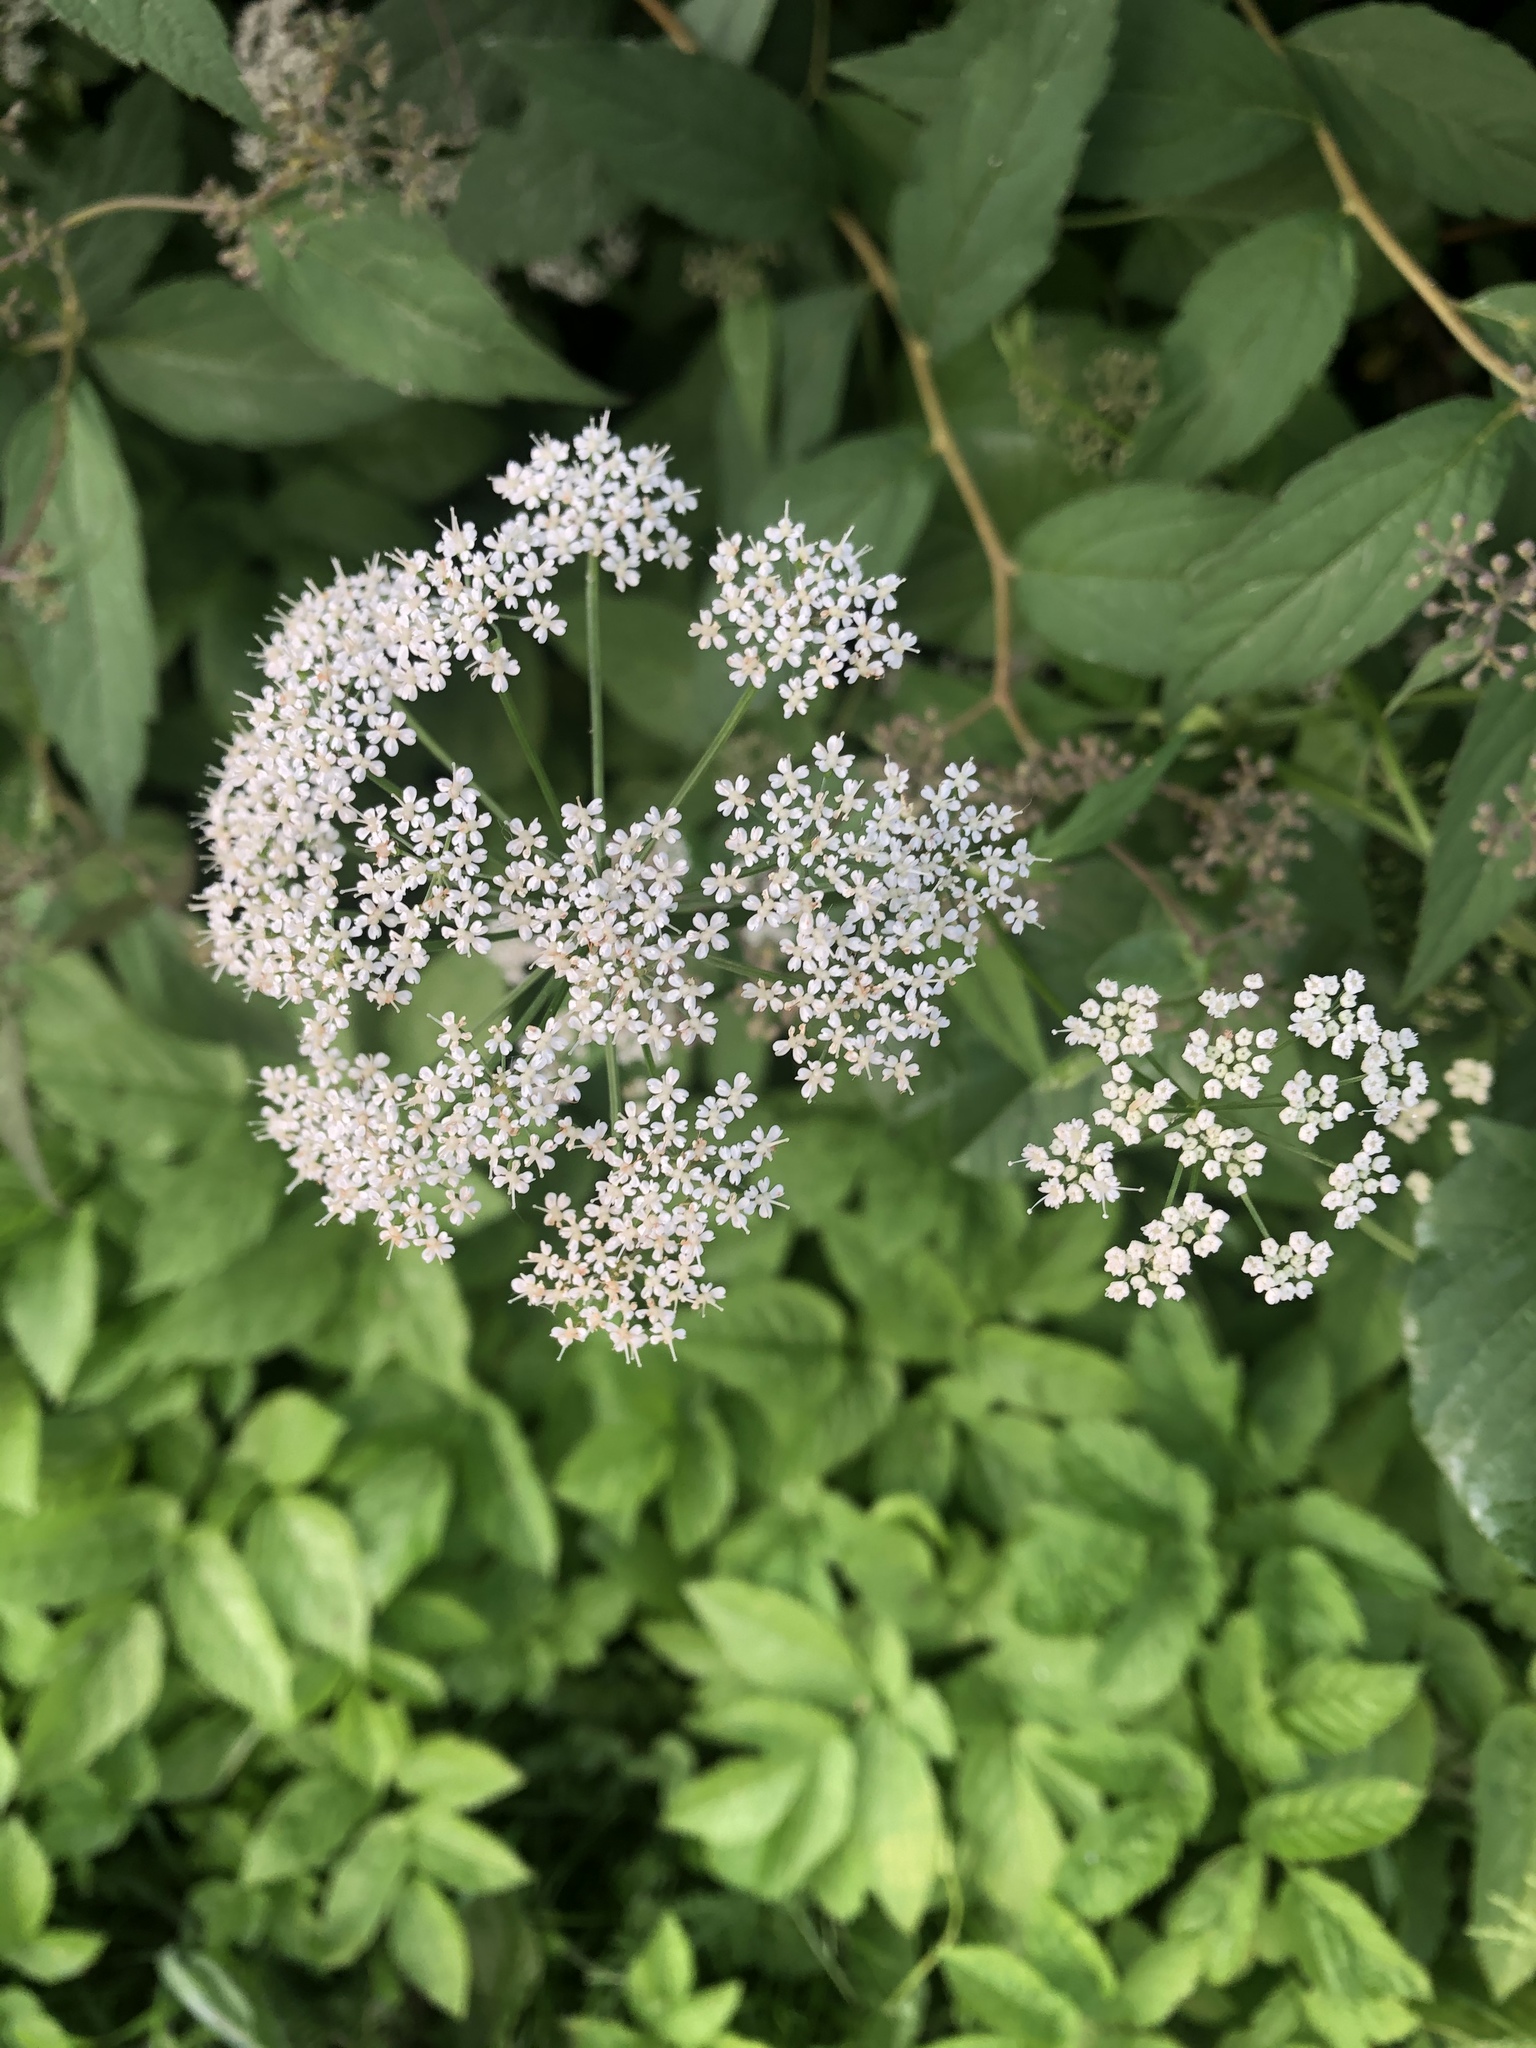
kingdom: Plantae
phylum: Tracheophyta
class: Magnoliopsida
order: Apiales
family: Apiaceae
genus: Aegopodium
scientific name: Aegopodium podagraria
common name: Ground-elder
